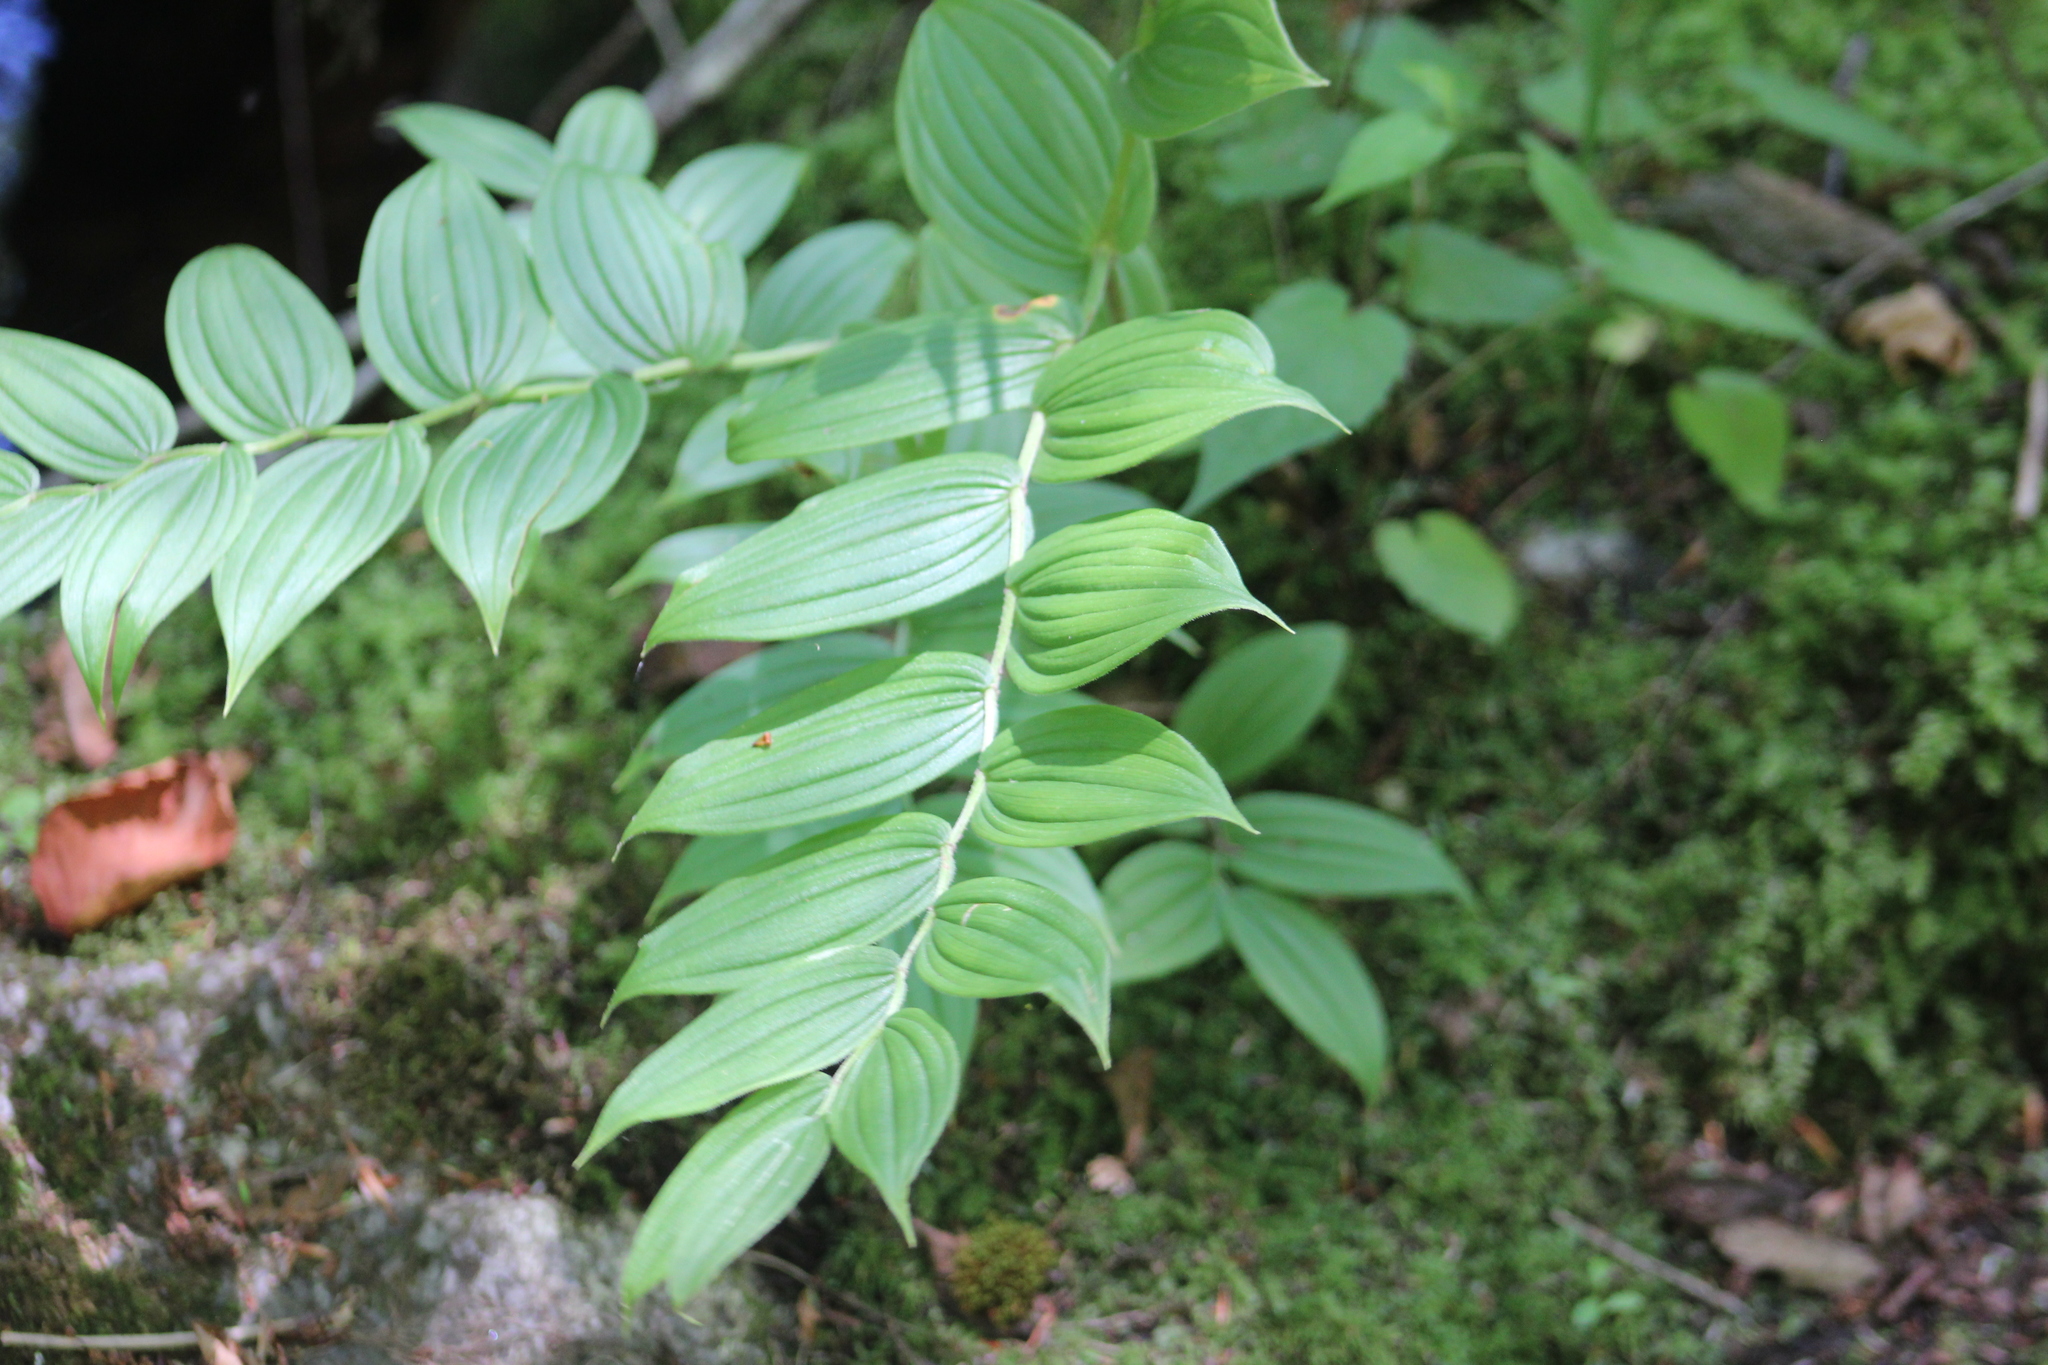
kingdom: Plantae
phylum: Tracheophyta
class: Liliopsida
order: Liliales
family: Liliaceae
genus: Streptopus
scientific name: Streptopus lanceolatus
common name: Rose mandarin
